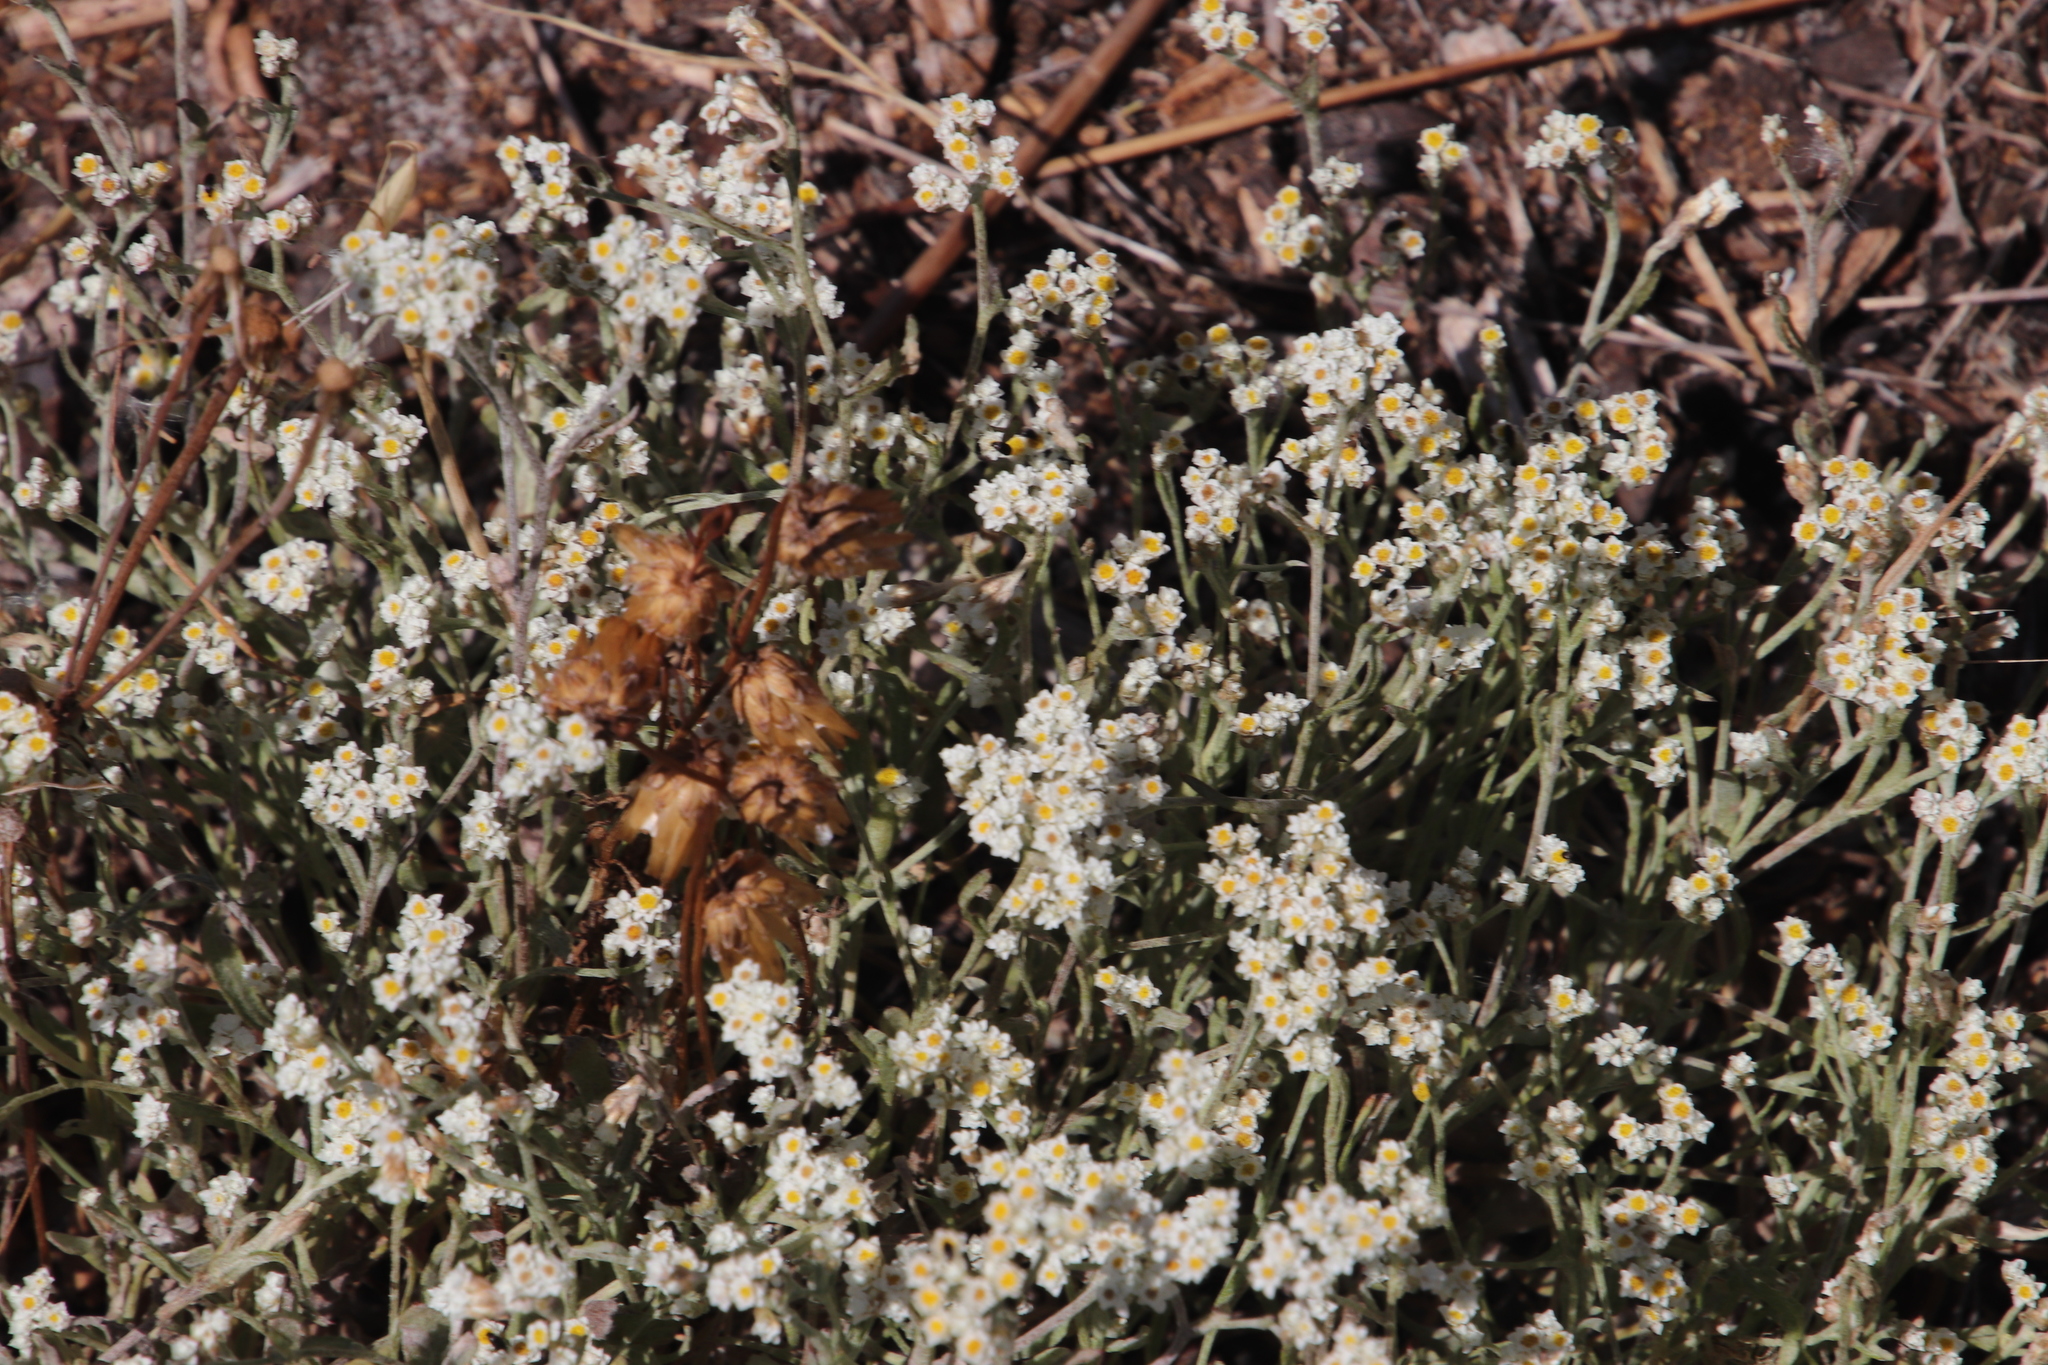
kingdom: Plantae
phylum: Tracheophyta
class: Magnoliopsida
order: Asterales
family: Asteraceae
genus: Helichrysum
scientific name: Helichrysum indicum
